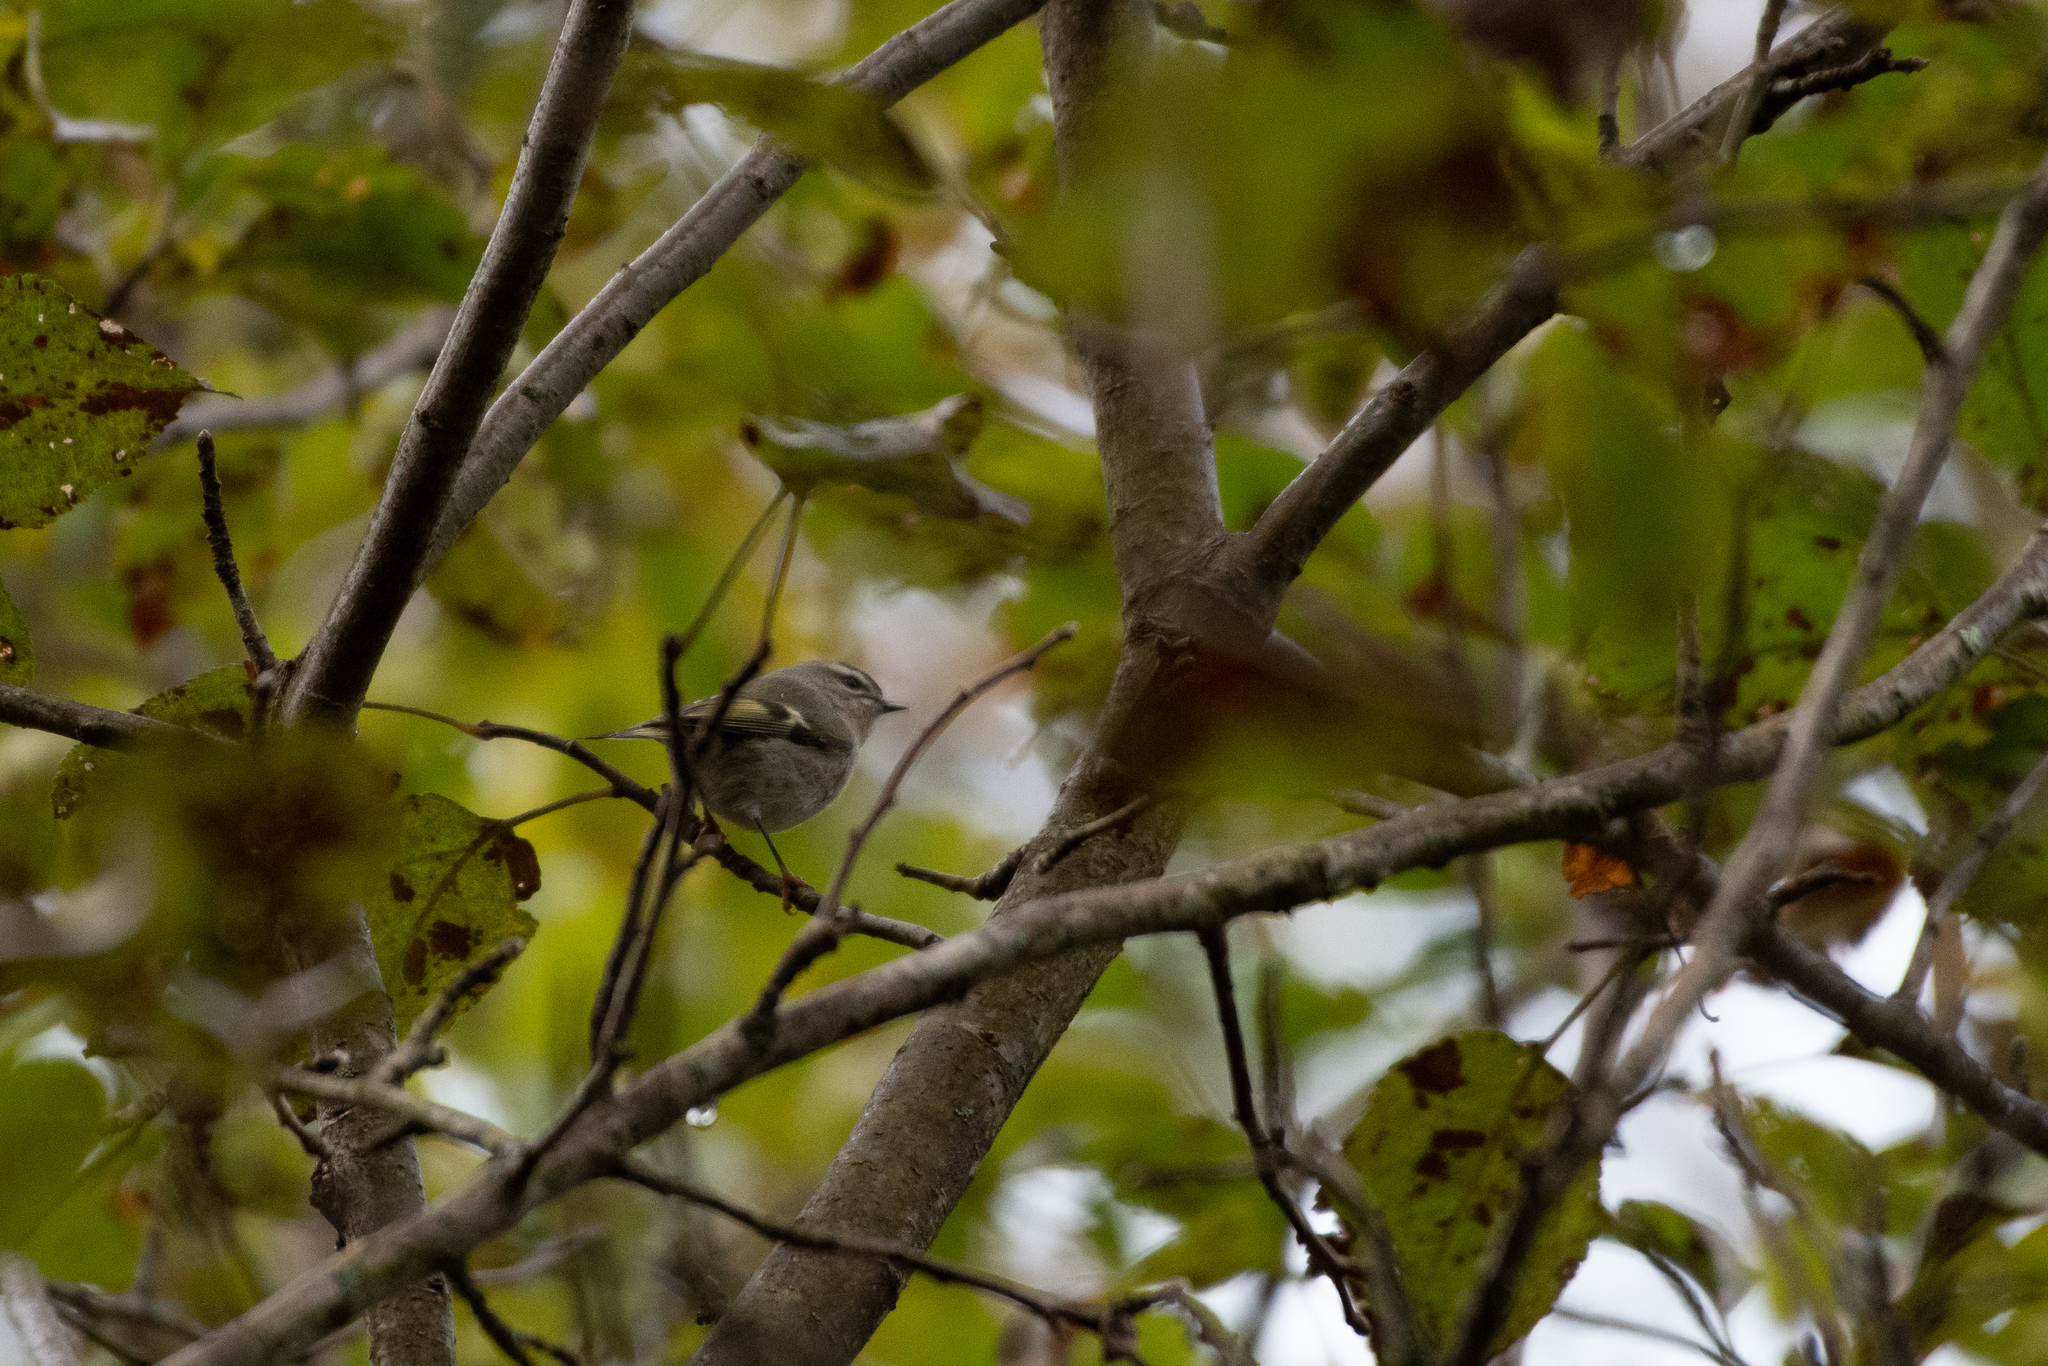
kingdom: Animalia
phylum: Chordata
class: Aves
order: Passeriformes
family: Regulidae
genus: Regulus
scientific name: Regulus satrapa
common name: Golden-crowned kinglet
